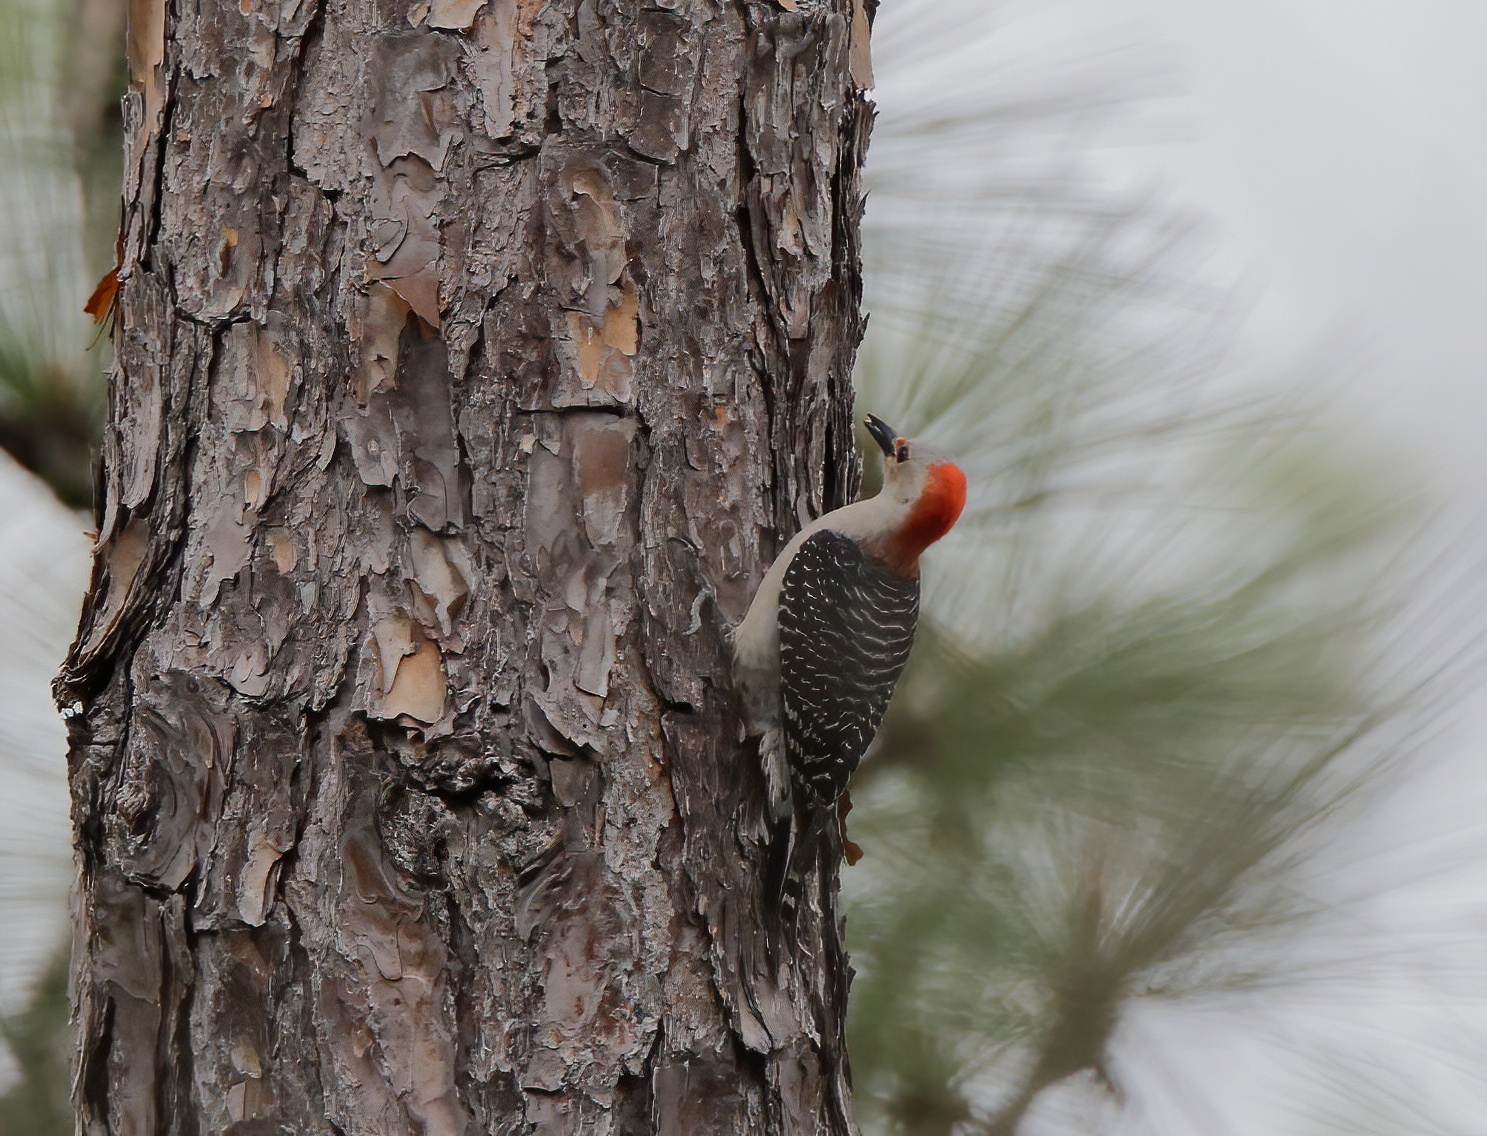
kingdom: Animalia
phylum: Chordata
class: Aves
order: Piciformes
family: Picidae
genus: Melanerpes
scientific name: Melanerpes carolinus
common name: Red-bellied woodpecker
